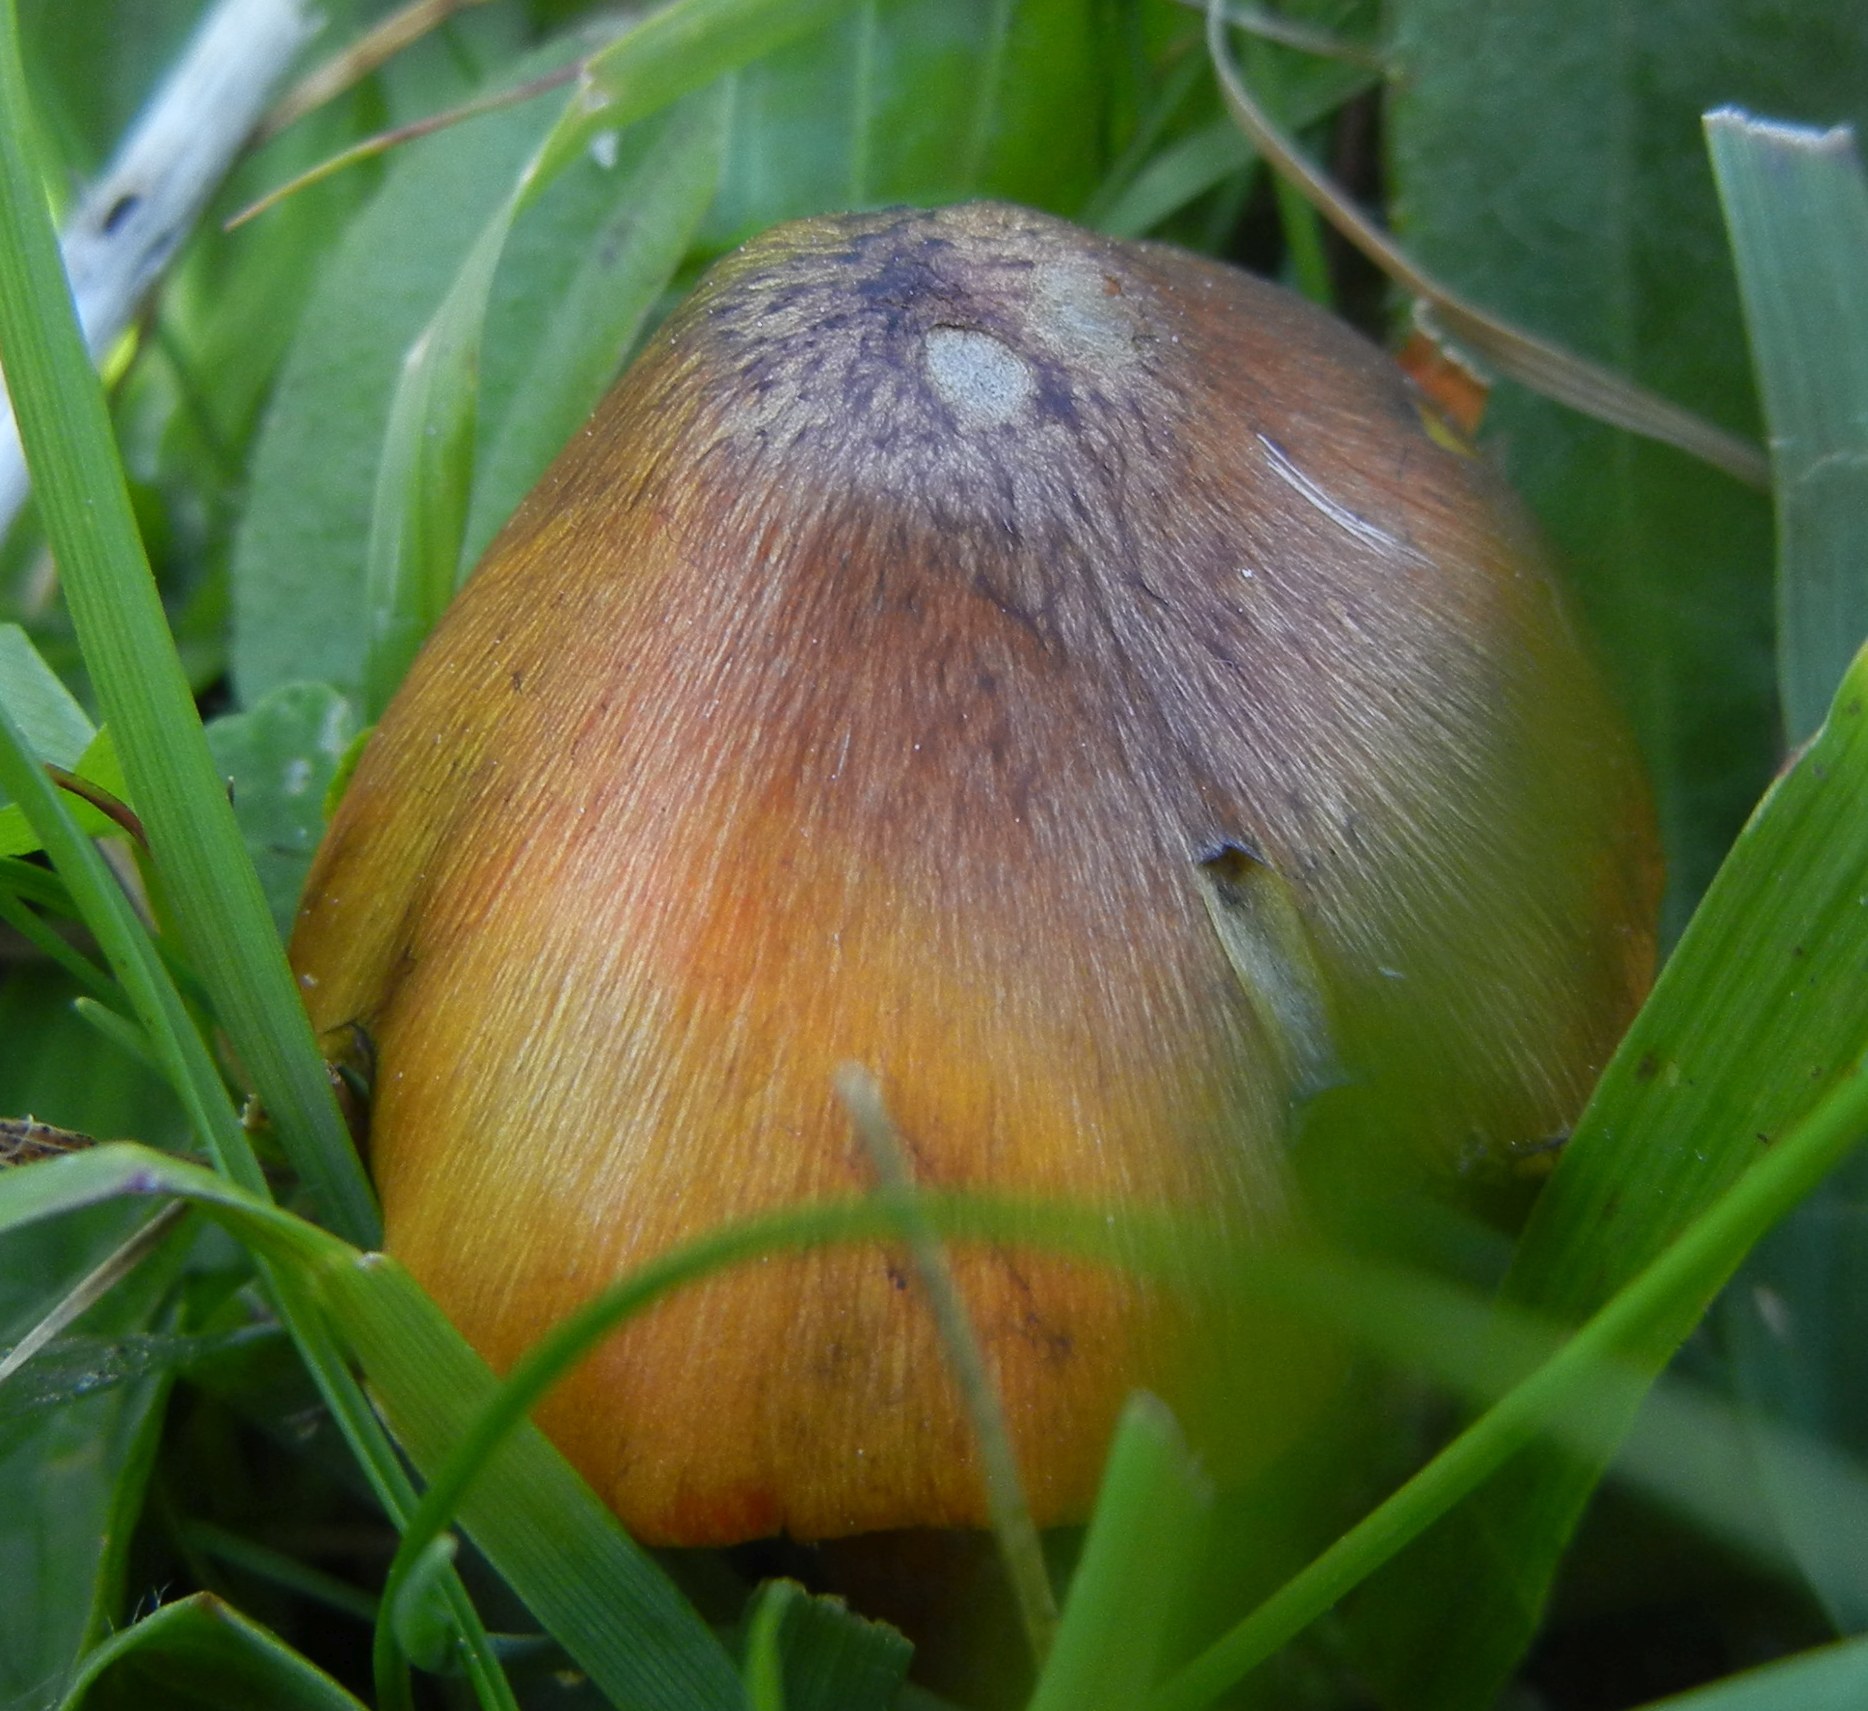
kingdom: Fungi
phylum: Basidiomycota
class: Agaricomycetes
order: Agaricales
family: Hygrophoraceae
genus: Hygrocybe
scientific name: Hygrocybe conica
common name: Blackening wax-cap
